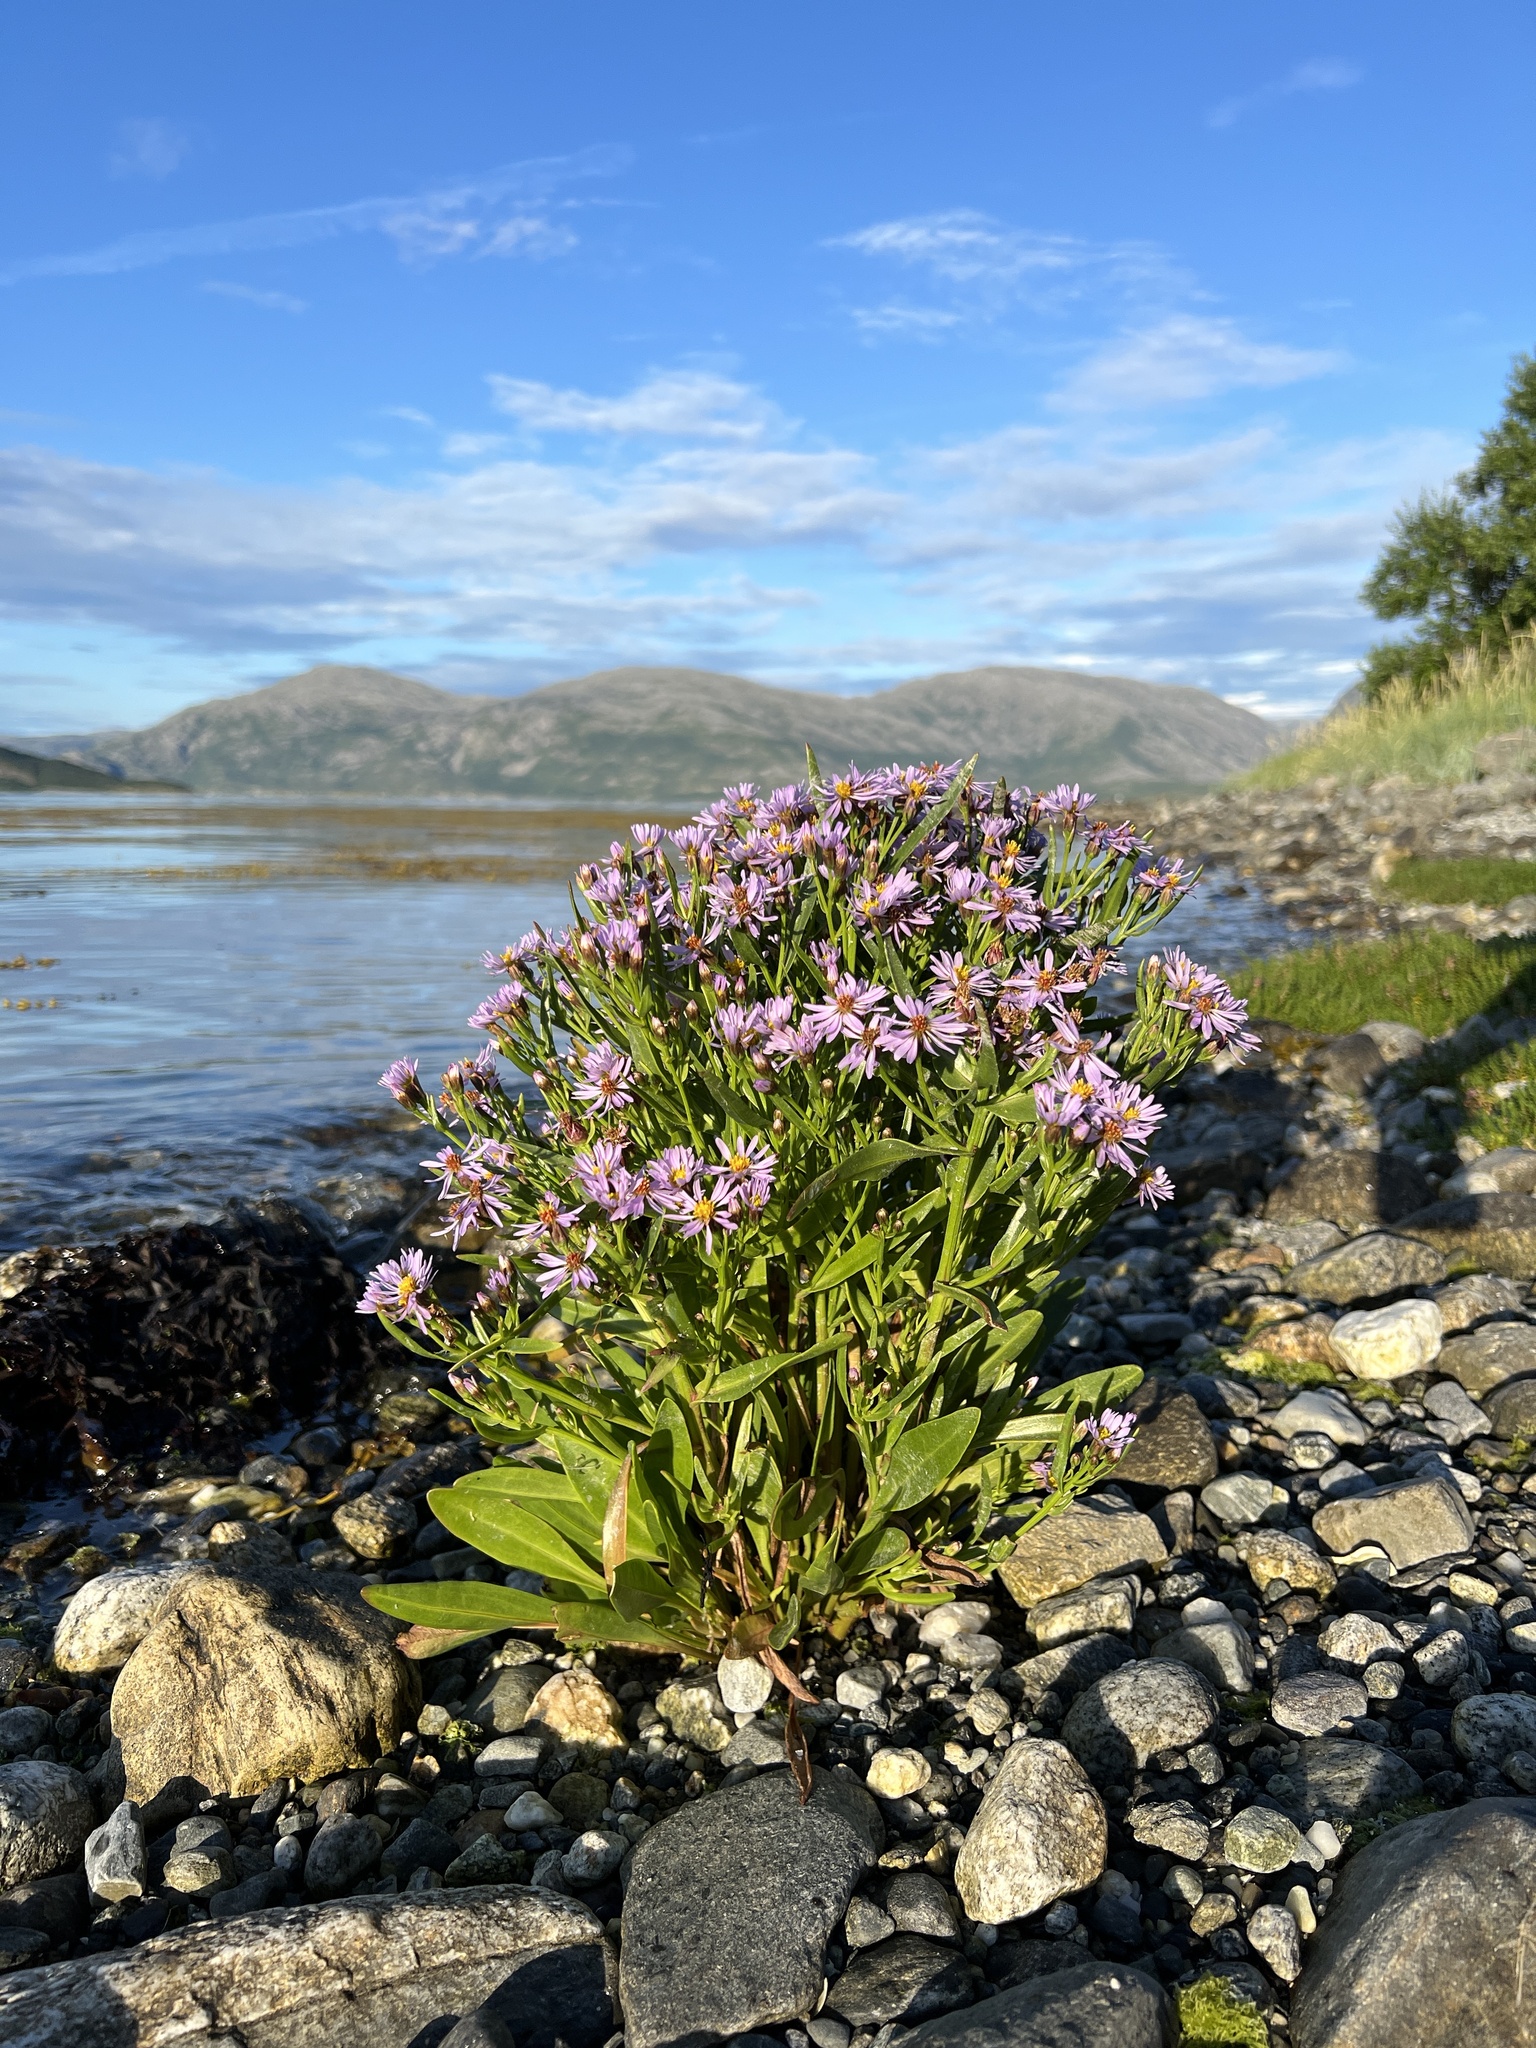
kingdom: Plantae
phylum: Tracheophyta
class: Magnoliopsida
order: Asterales
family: Asteraceae
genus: Tripolium
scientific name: Tripolium pannonicum
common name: Sea aster
